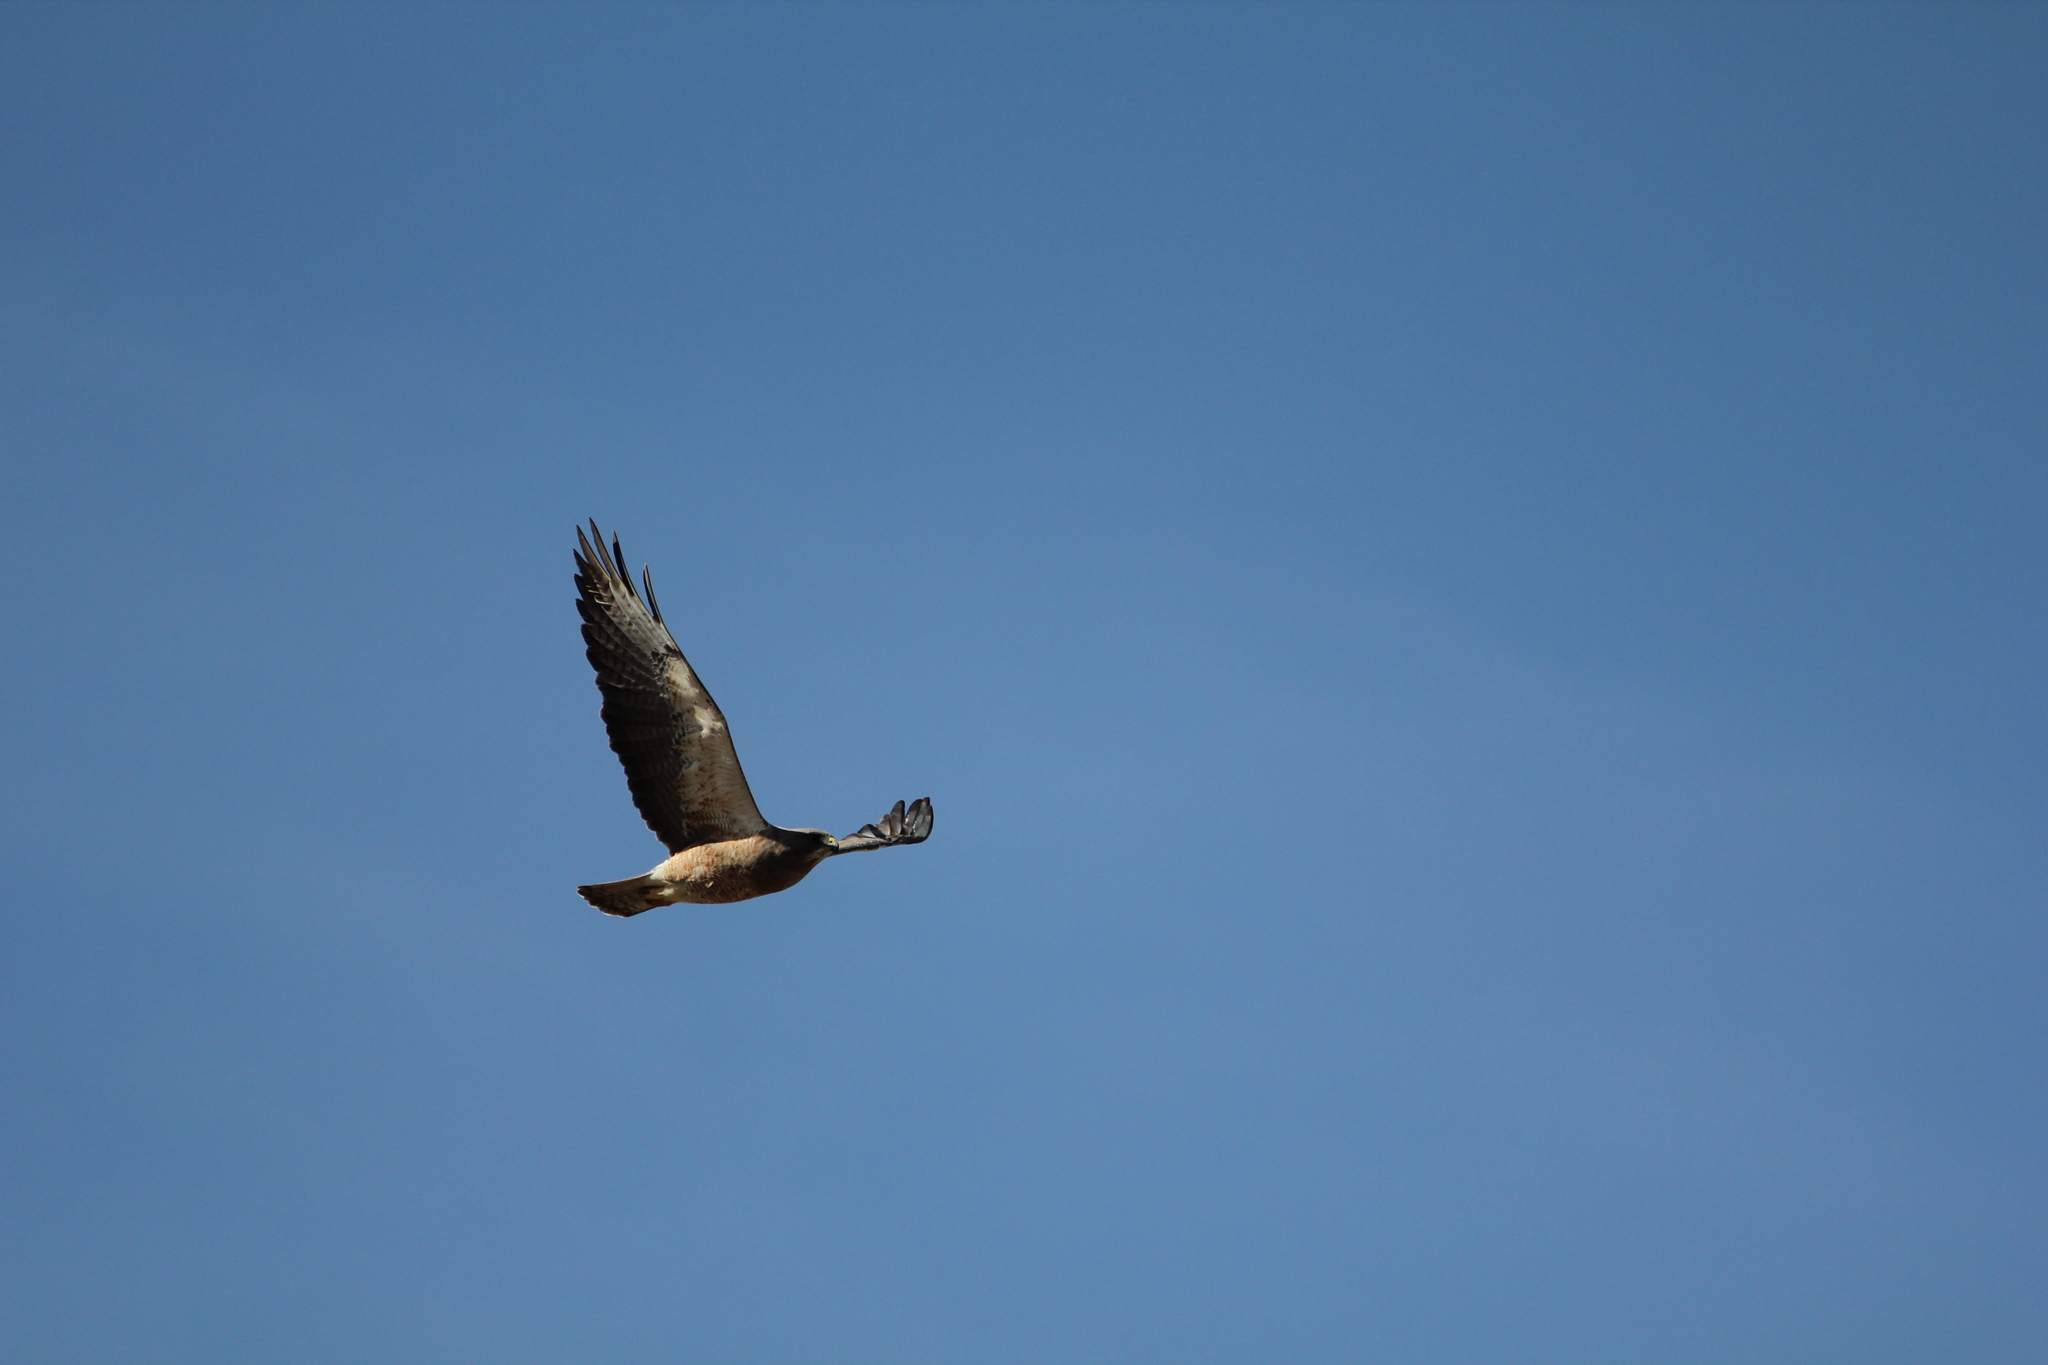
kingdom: Animalia
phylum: Chordata
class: Aves
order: Accipitriformes
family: Accipitridae
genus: Buteo
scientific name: Buteo swainsoni
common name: Swainson's hawk
